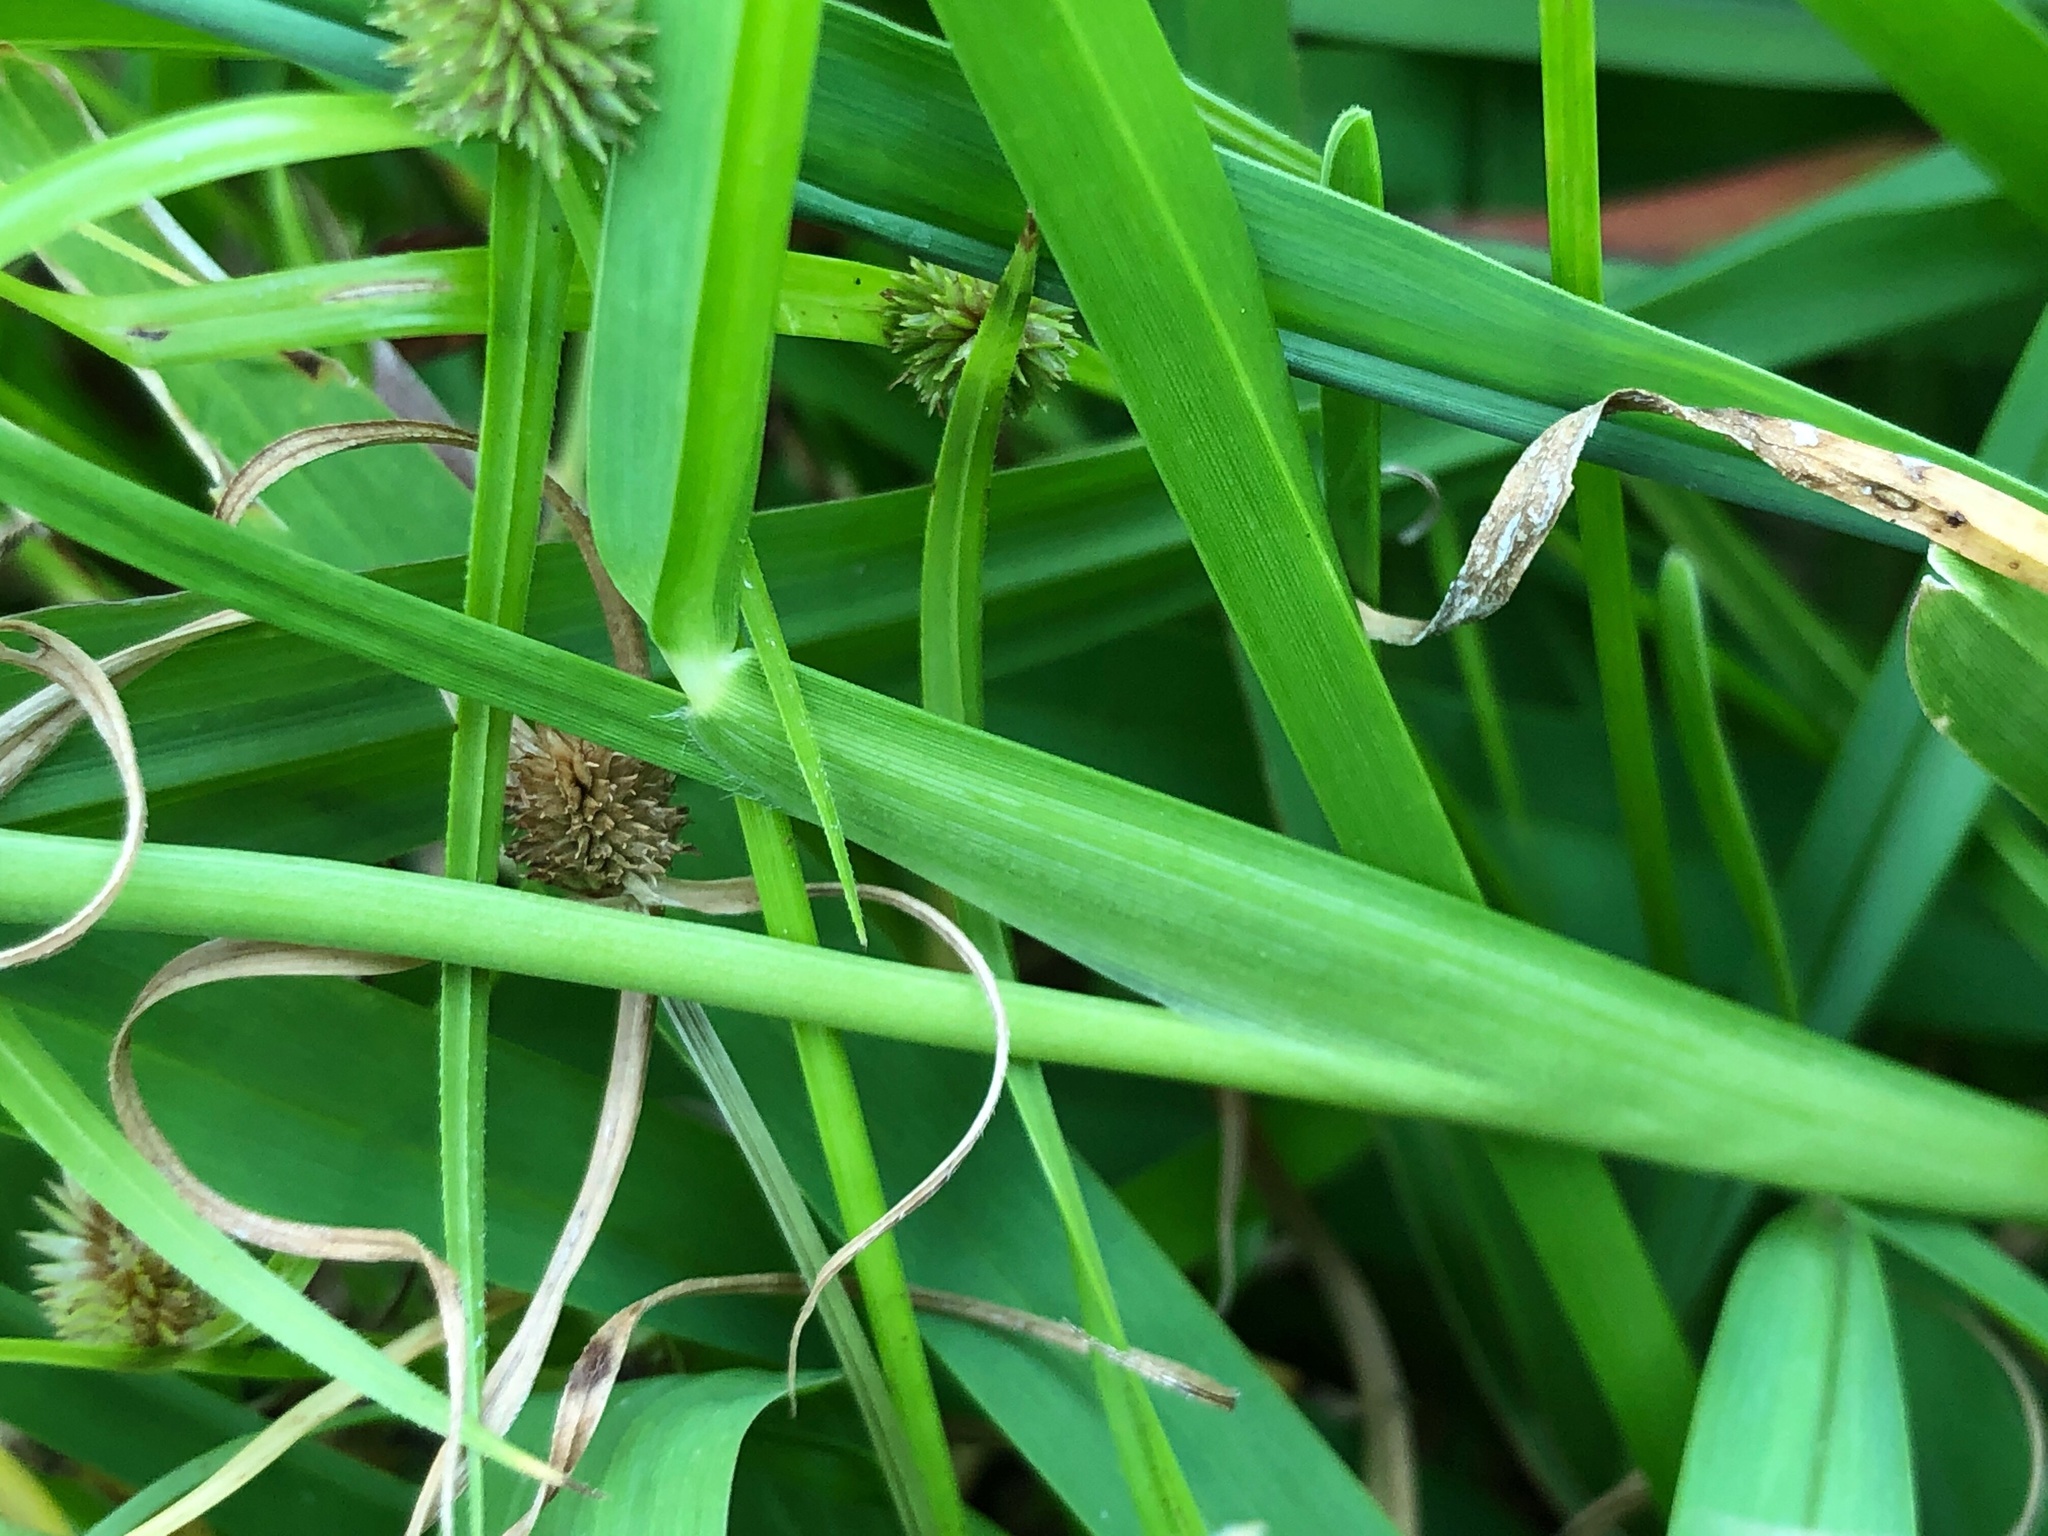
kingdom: Plantae
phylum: Tracheophyta
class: Liliopsida
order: Poales
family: Poaceae
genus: Stenotaphrum
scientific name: Stenotaphrum secundatum
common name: St. augustine grass
